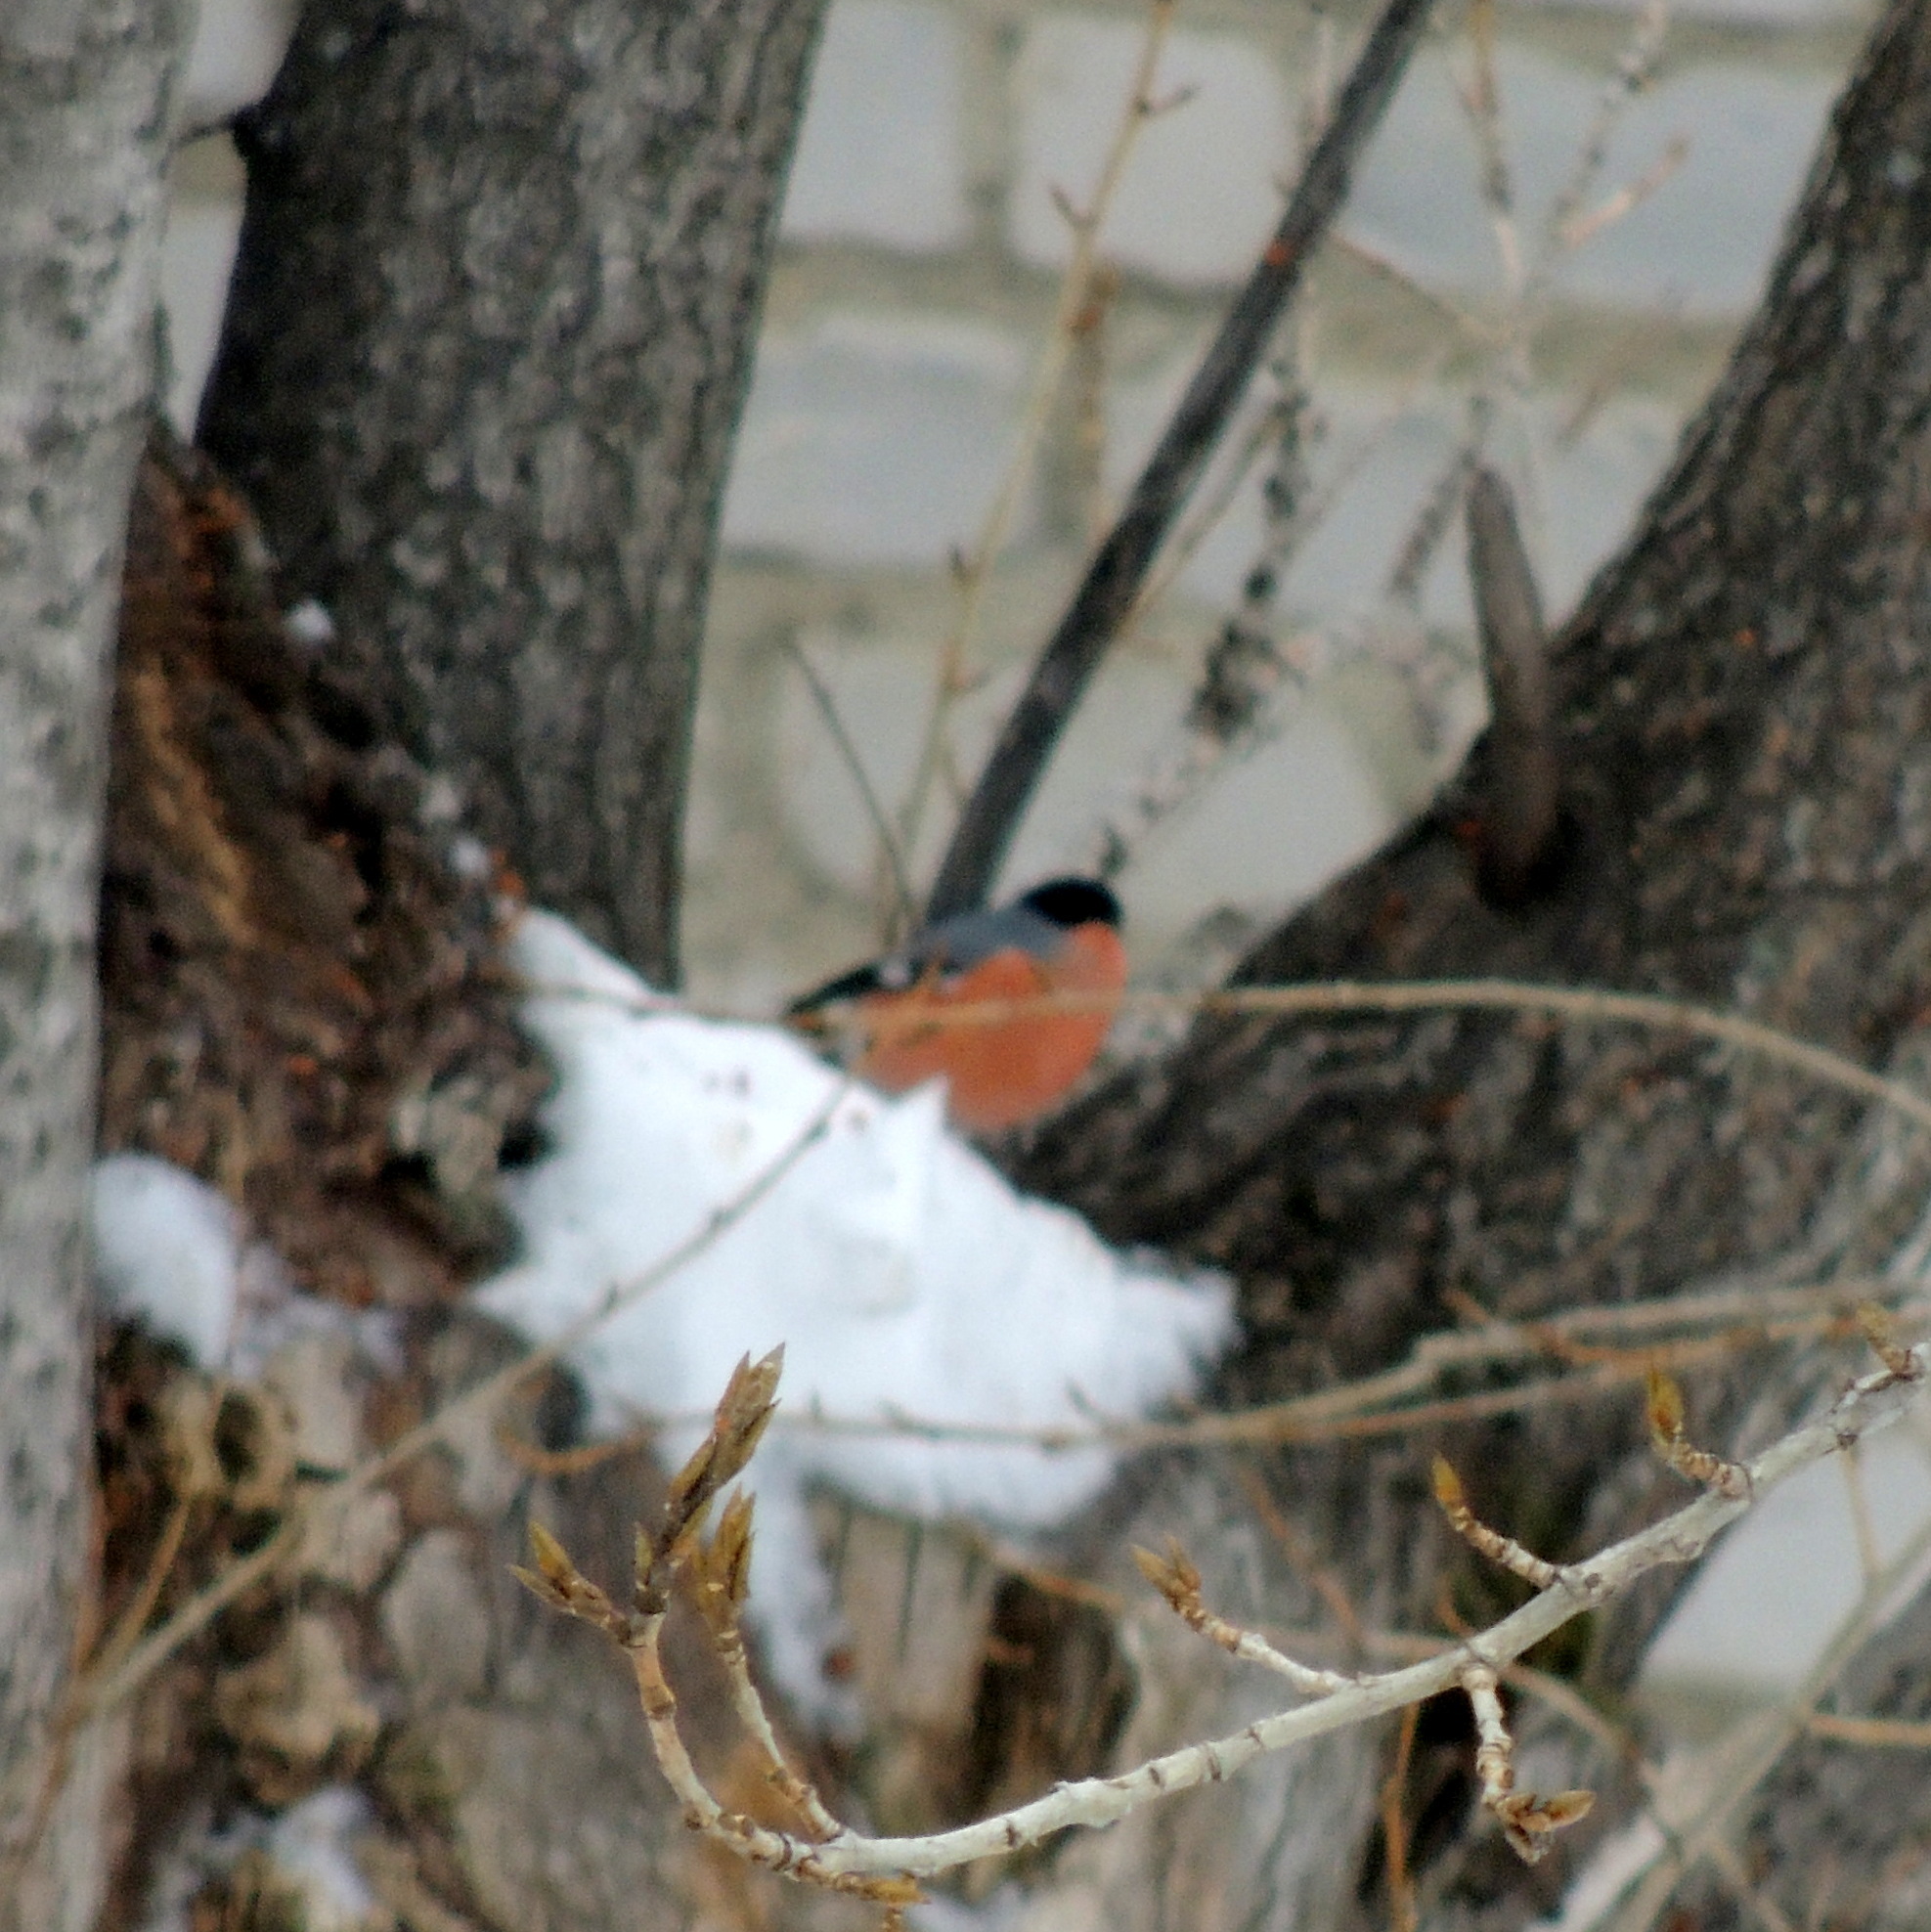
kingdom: Animalia
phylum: Chordata
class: Aves
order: Passeriformes
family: Fringillidae
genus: Pyrrhula
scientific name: Pyrrhula pyrrhula
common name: Eurasian bullfinch
